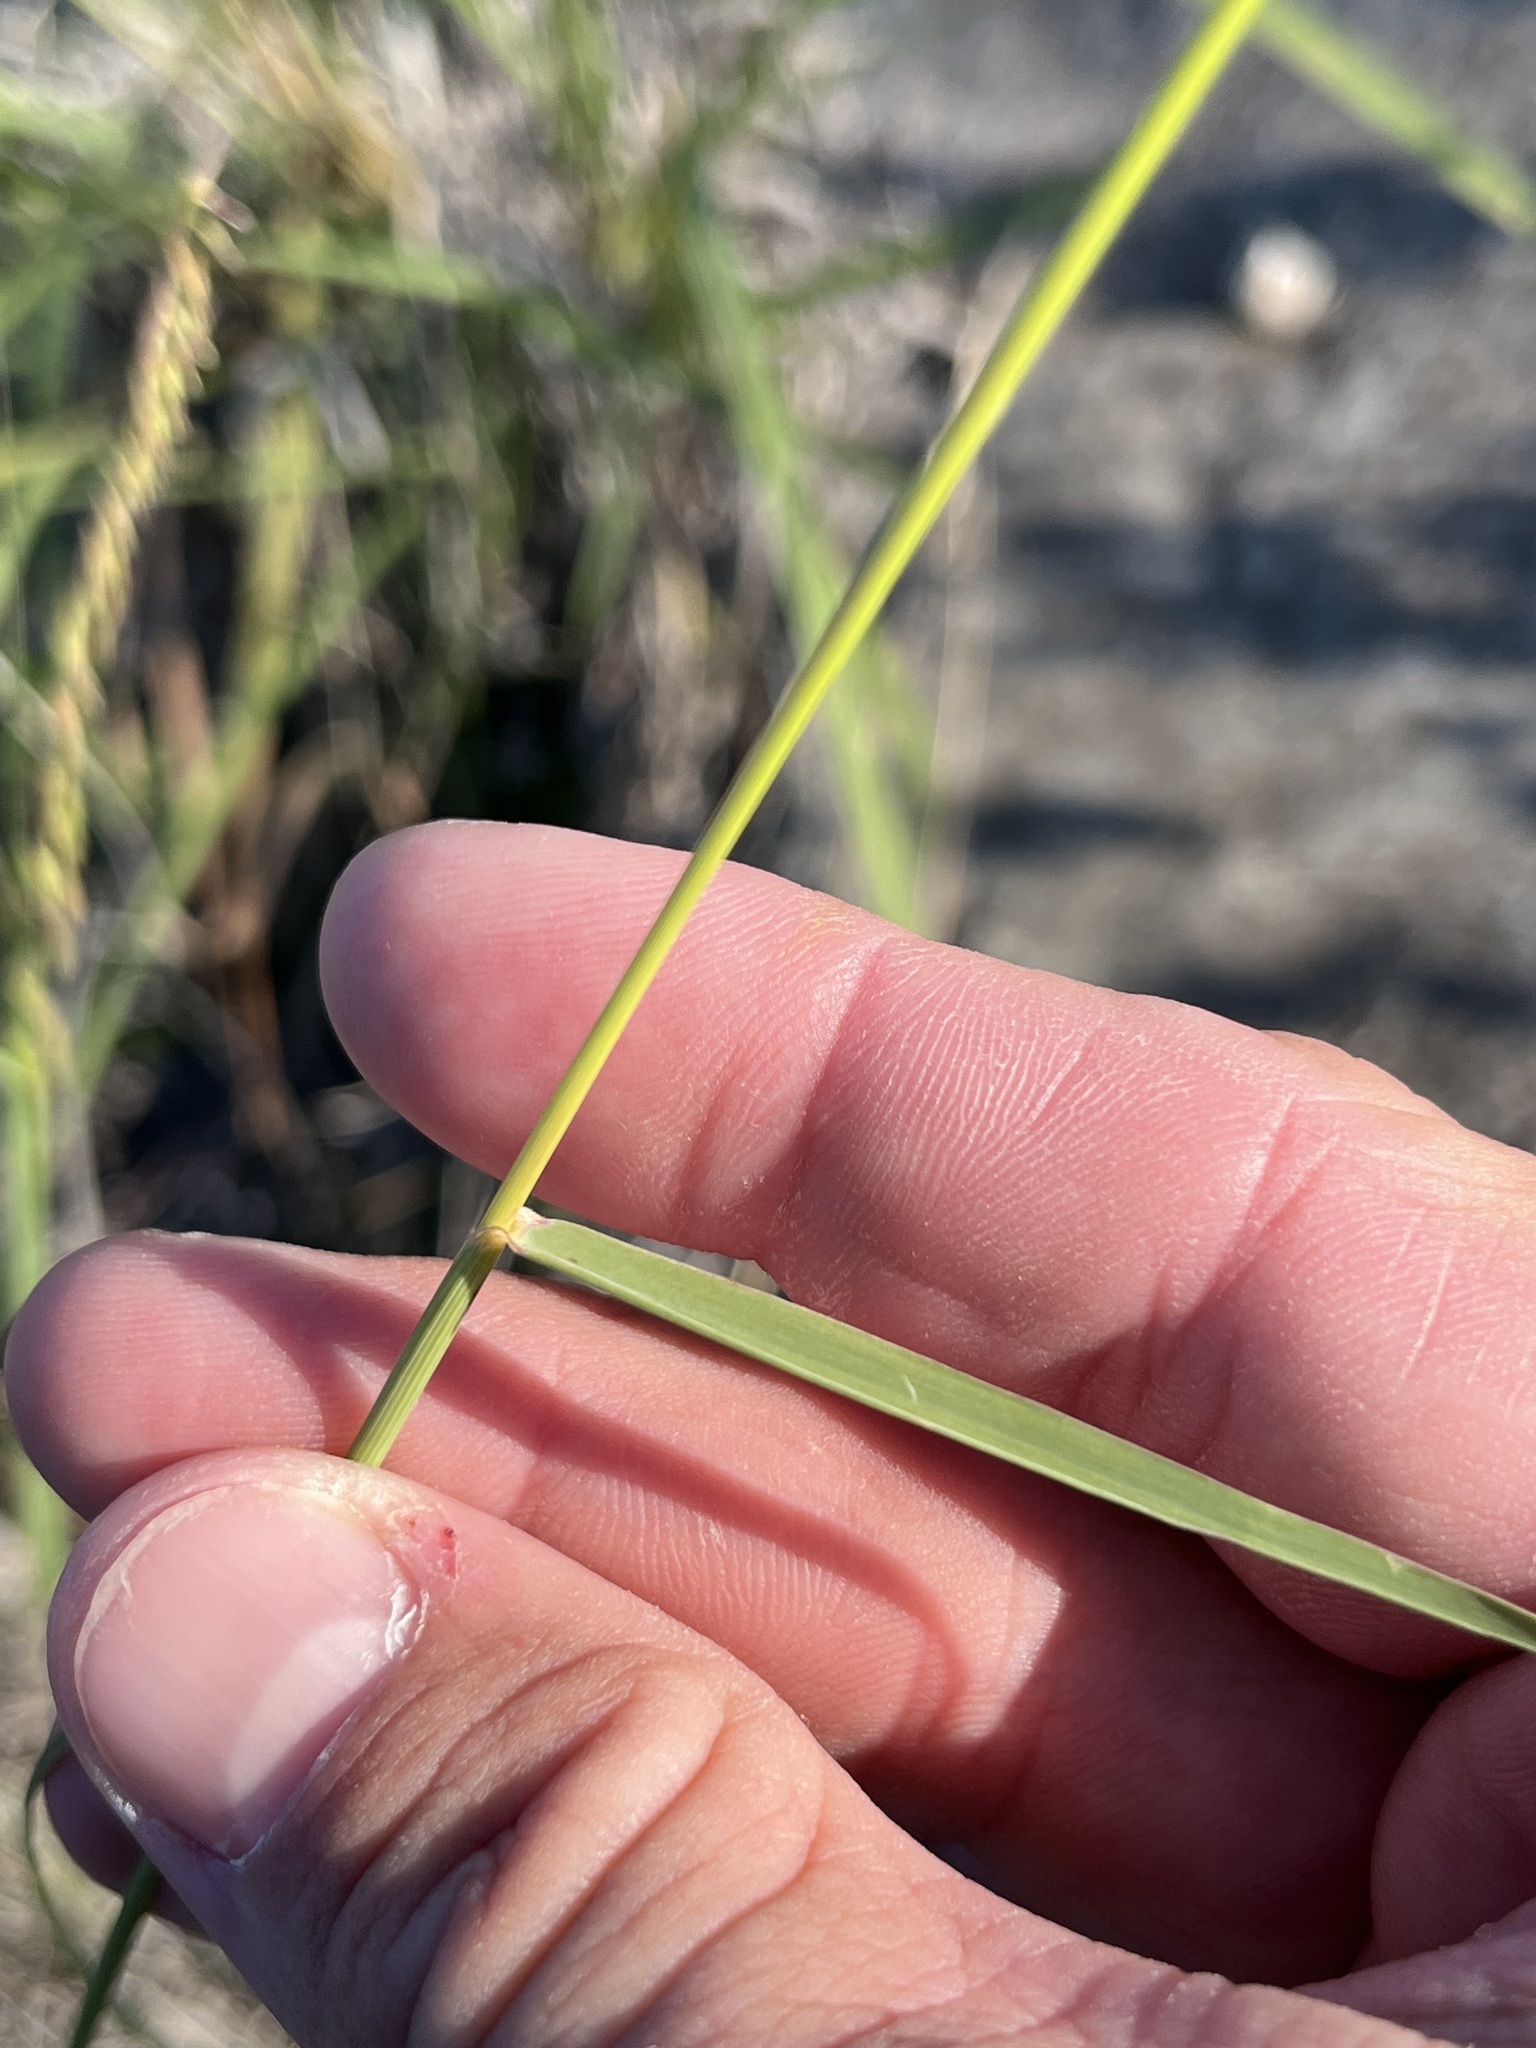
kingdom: Plantae
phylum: Tracheophyta
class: Liliopsida
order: Poales
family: Poaceae
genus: Bouteloua
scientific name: Bouteloua curtipendula
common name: Side-oats grama
